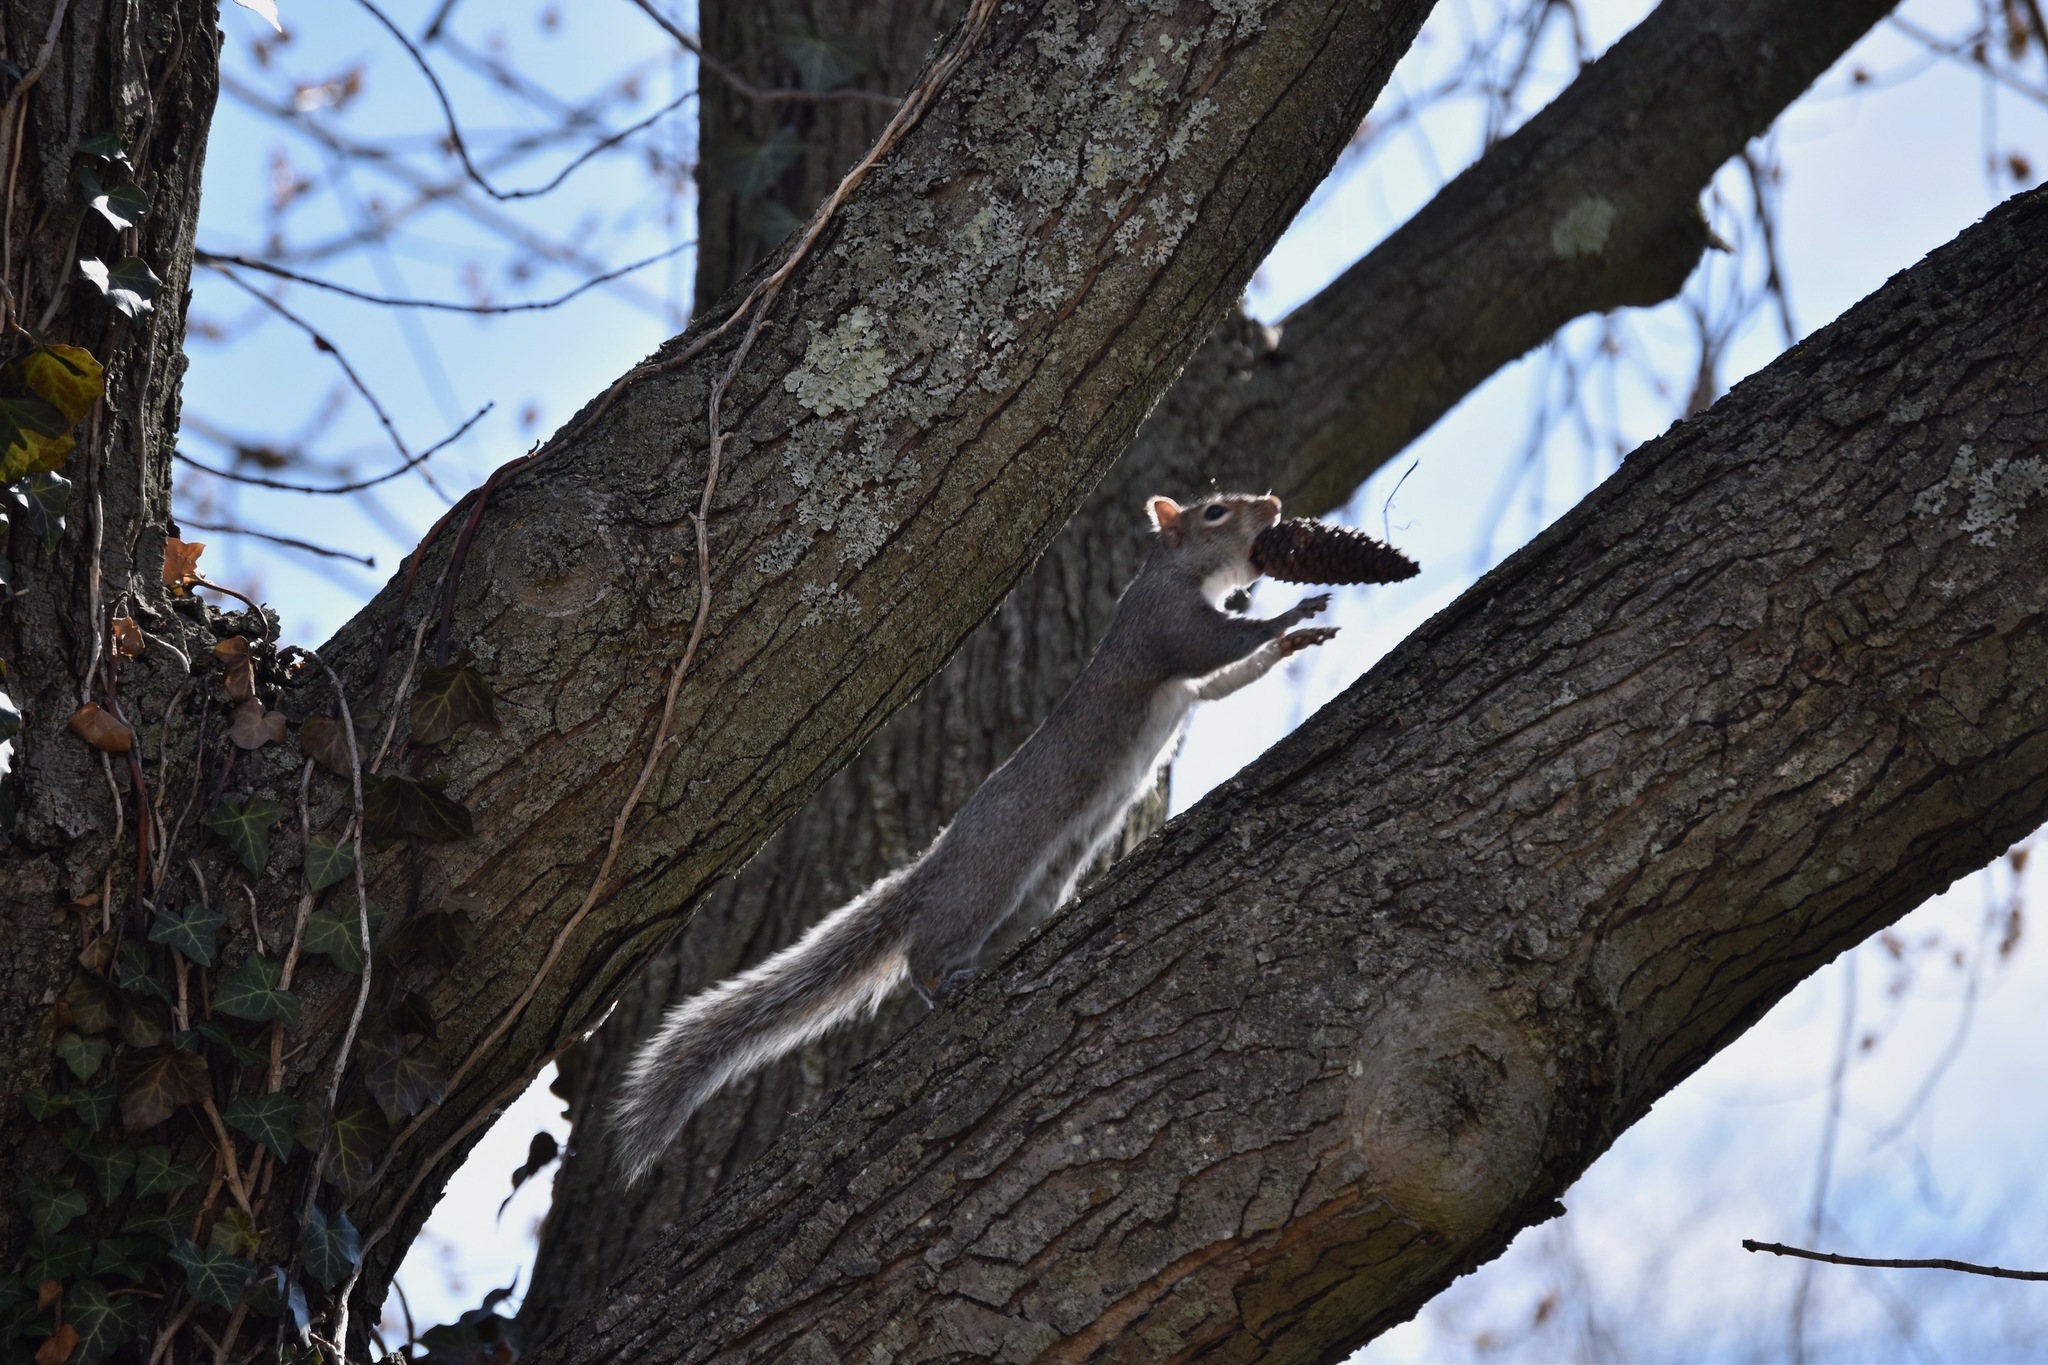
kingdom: Animalia
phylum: Chordata
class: Mammalia
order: Rodentia
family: Sciuridae
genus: Sciurus
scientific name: Sciurus carolinensis
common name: Eastern gray squirrel
